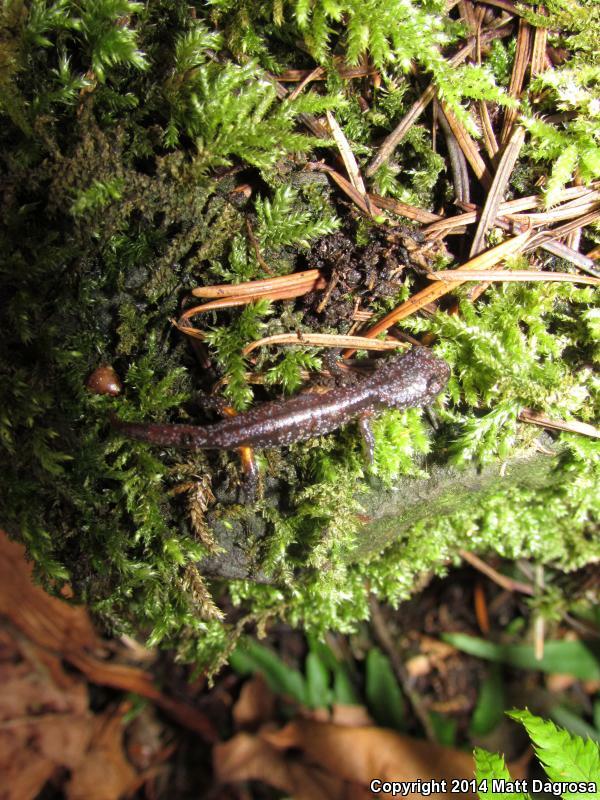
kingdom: Animalia
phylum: Chordata
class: Amphibia
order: Caudata
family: Plethodontidae
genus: Ensatina
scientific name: Ensatina eschscholtzii
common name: Ensatina
